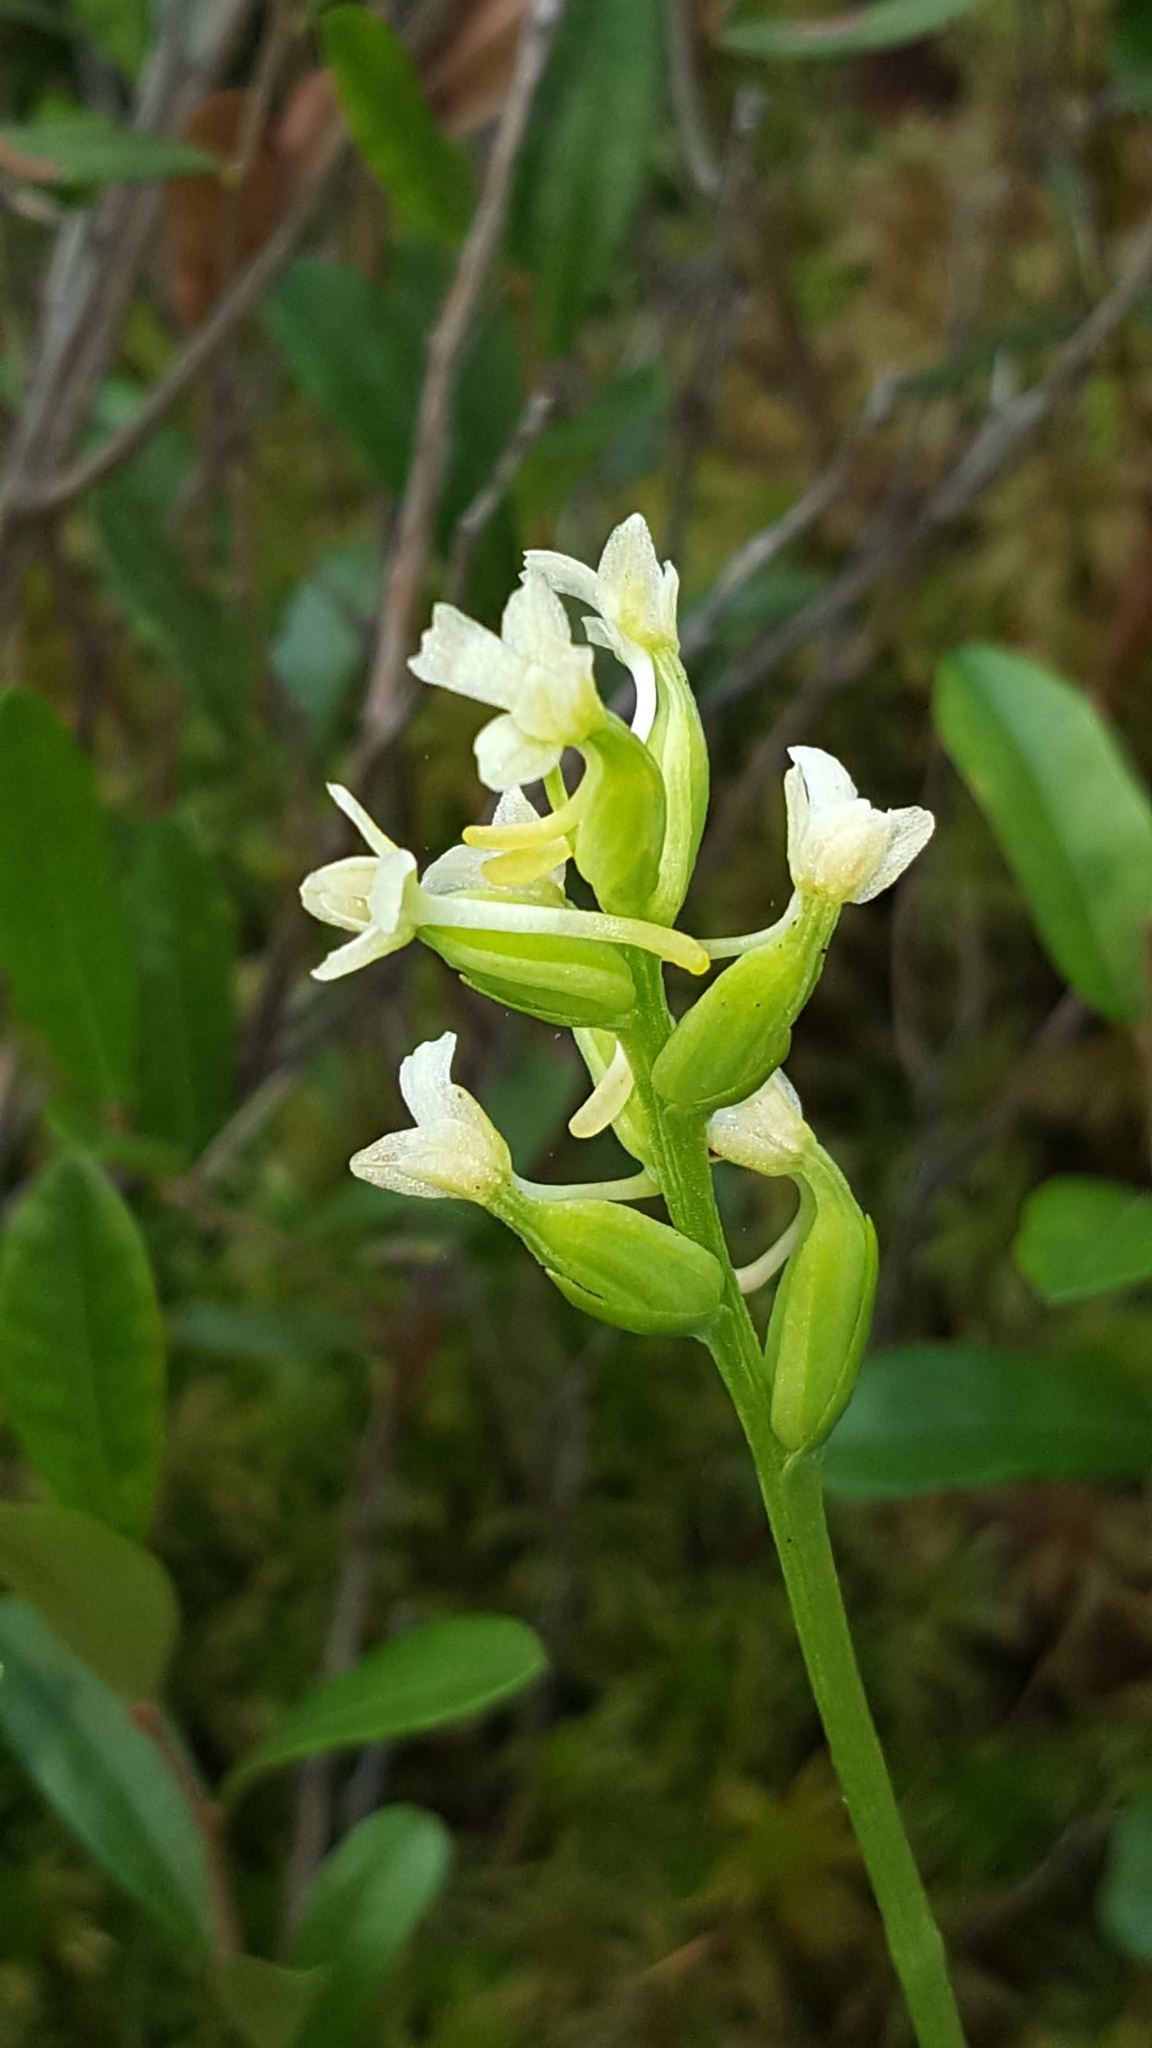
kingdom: Plantae
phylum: Tracheophyta
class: Liliopsida
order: Asparagales
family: Orchidaceae
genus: Platanthera
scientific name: Platanthera clavellata
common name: Club-spur orchid
